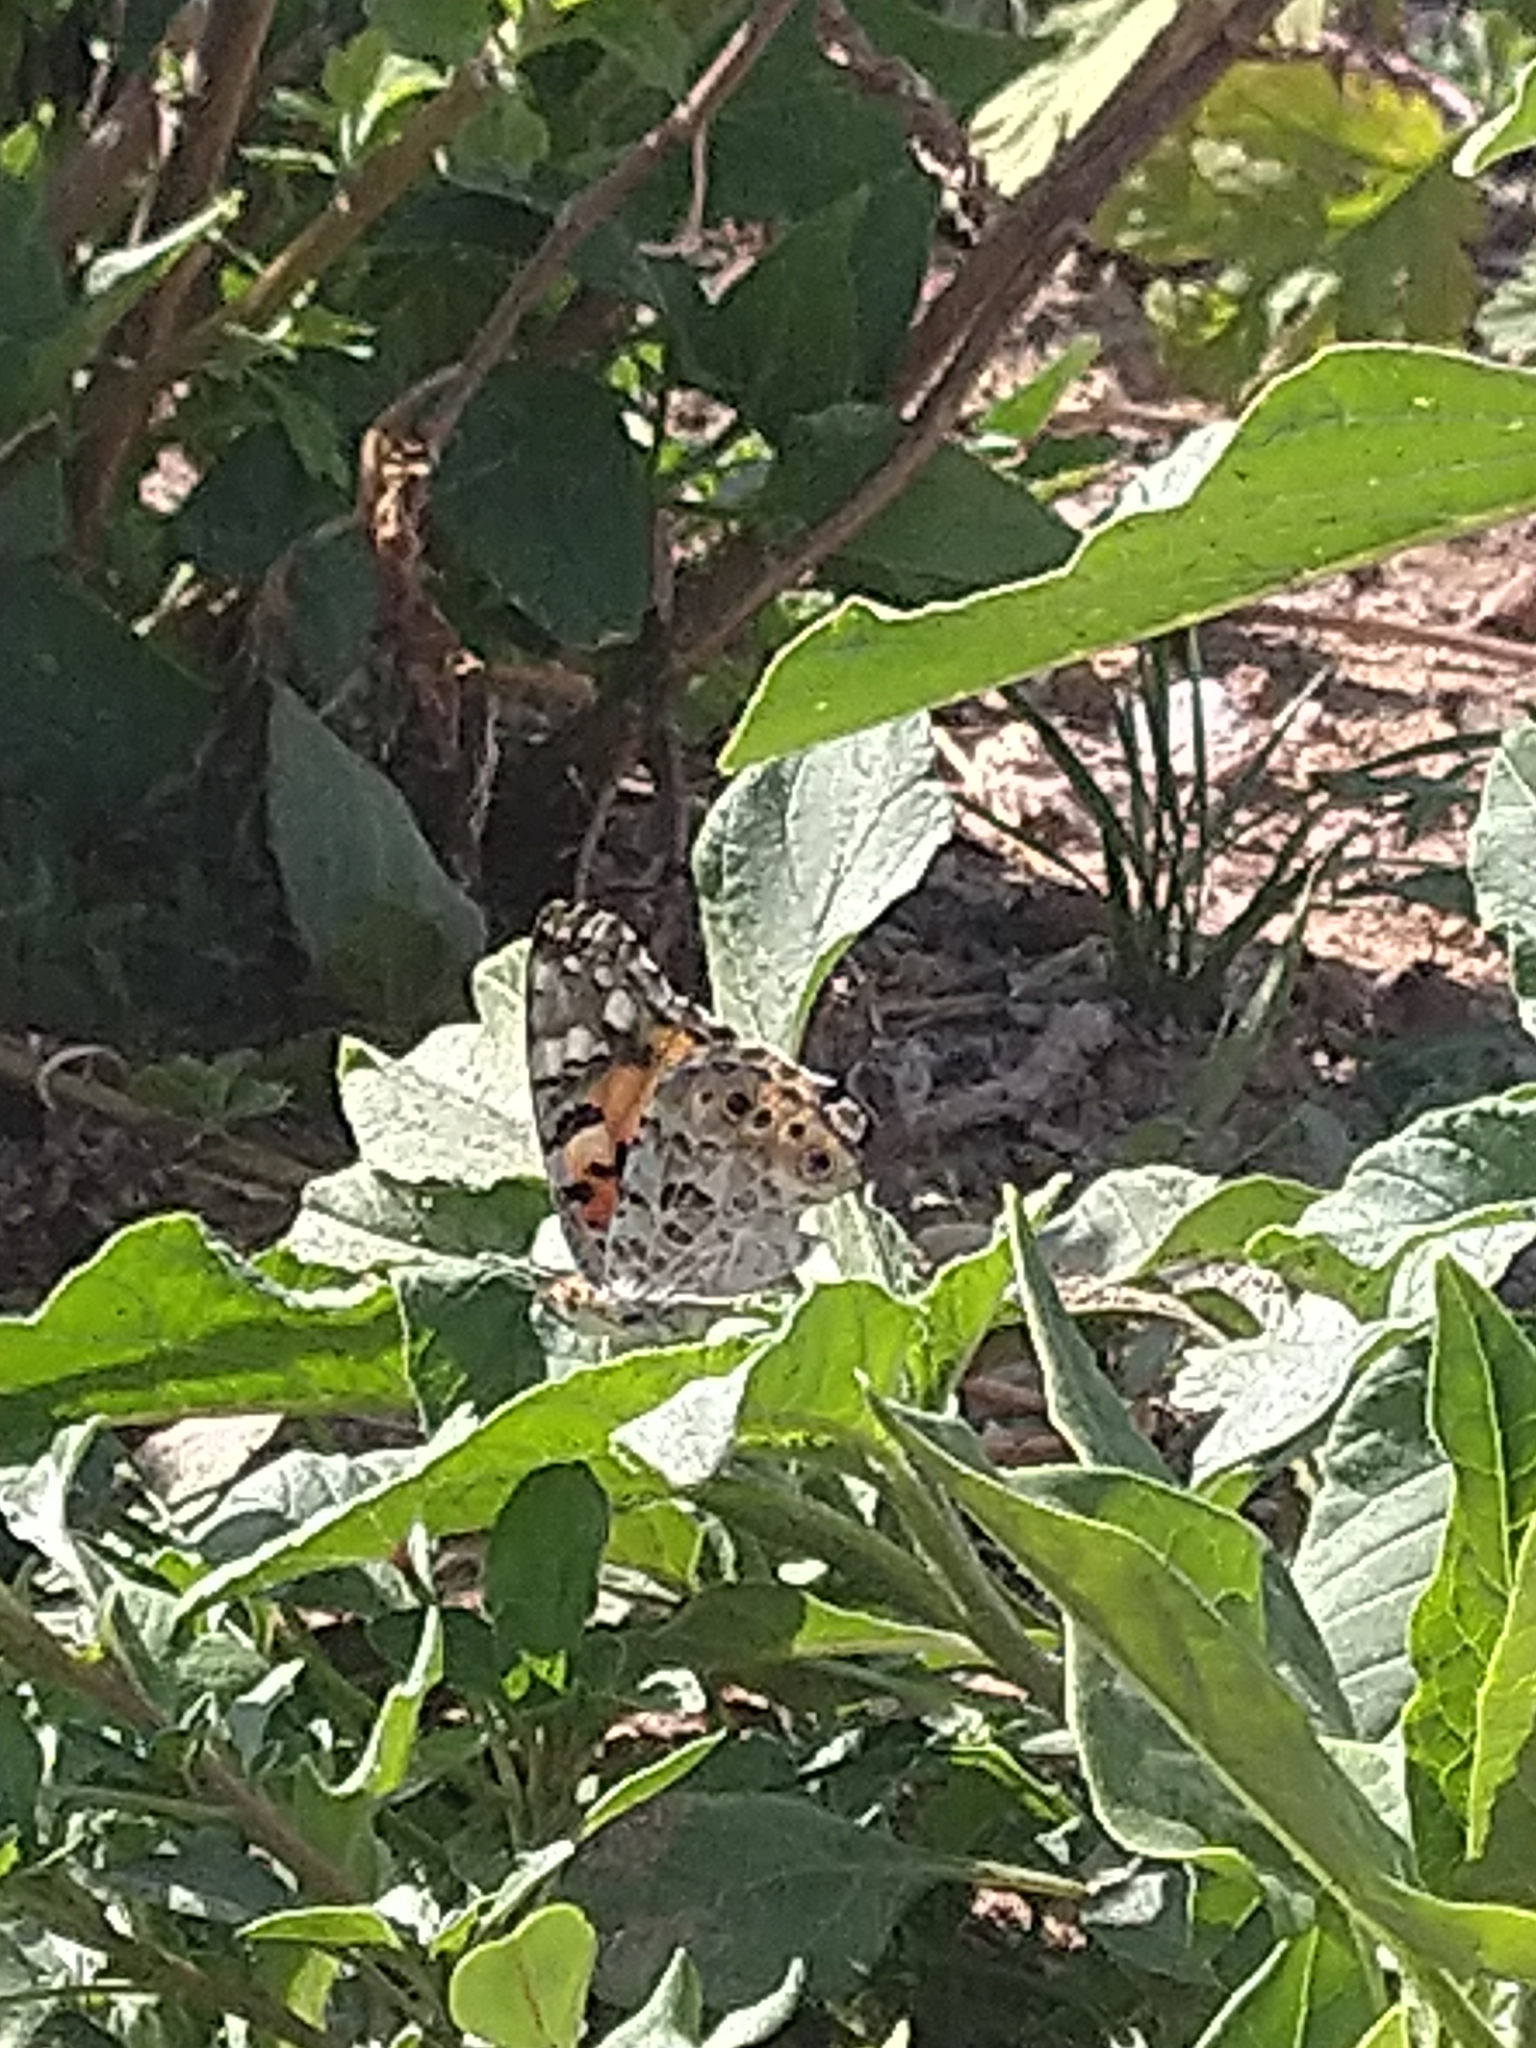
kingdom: Animalia
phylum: Arthropoda
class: Insecta
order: Lepidoptera
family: Nymphalidae
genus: Vanessa
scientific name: Vanessa cardui
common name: Painted lady
